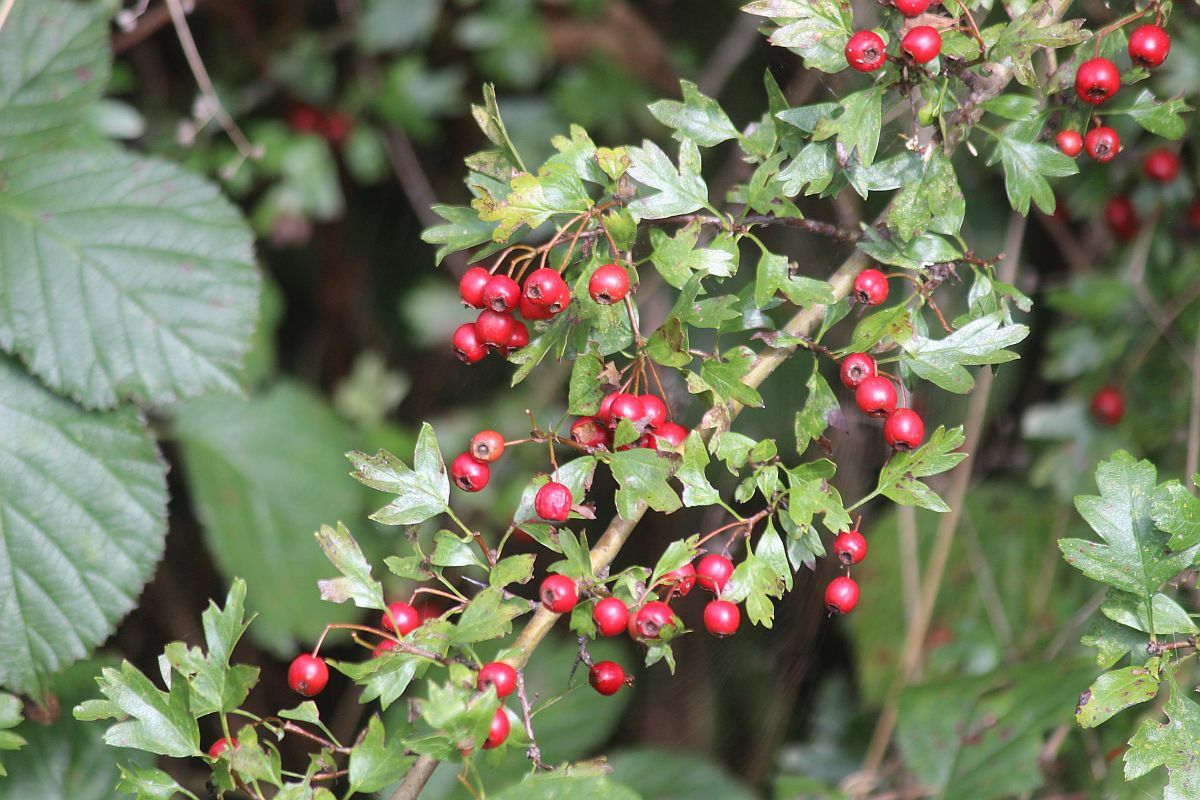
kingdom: Plantae
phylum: Tracheophyta
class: Magnoliopsida
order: Rosales
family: Rosaceae
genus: Crataegus
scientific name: Crataegus monogyna
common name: Hawthorn
